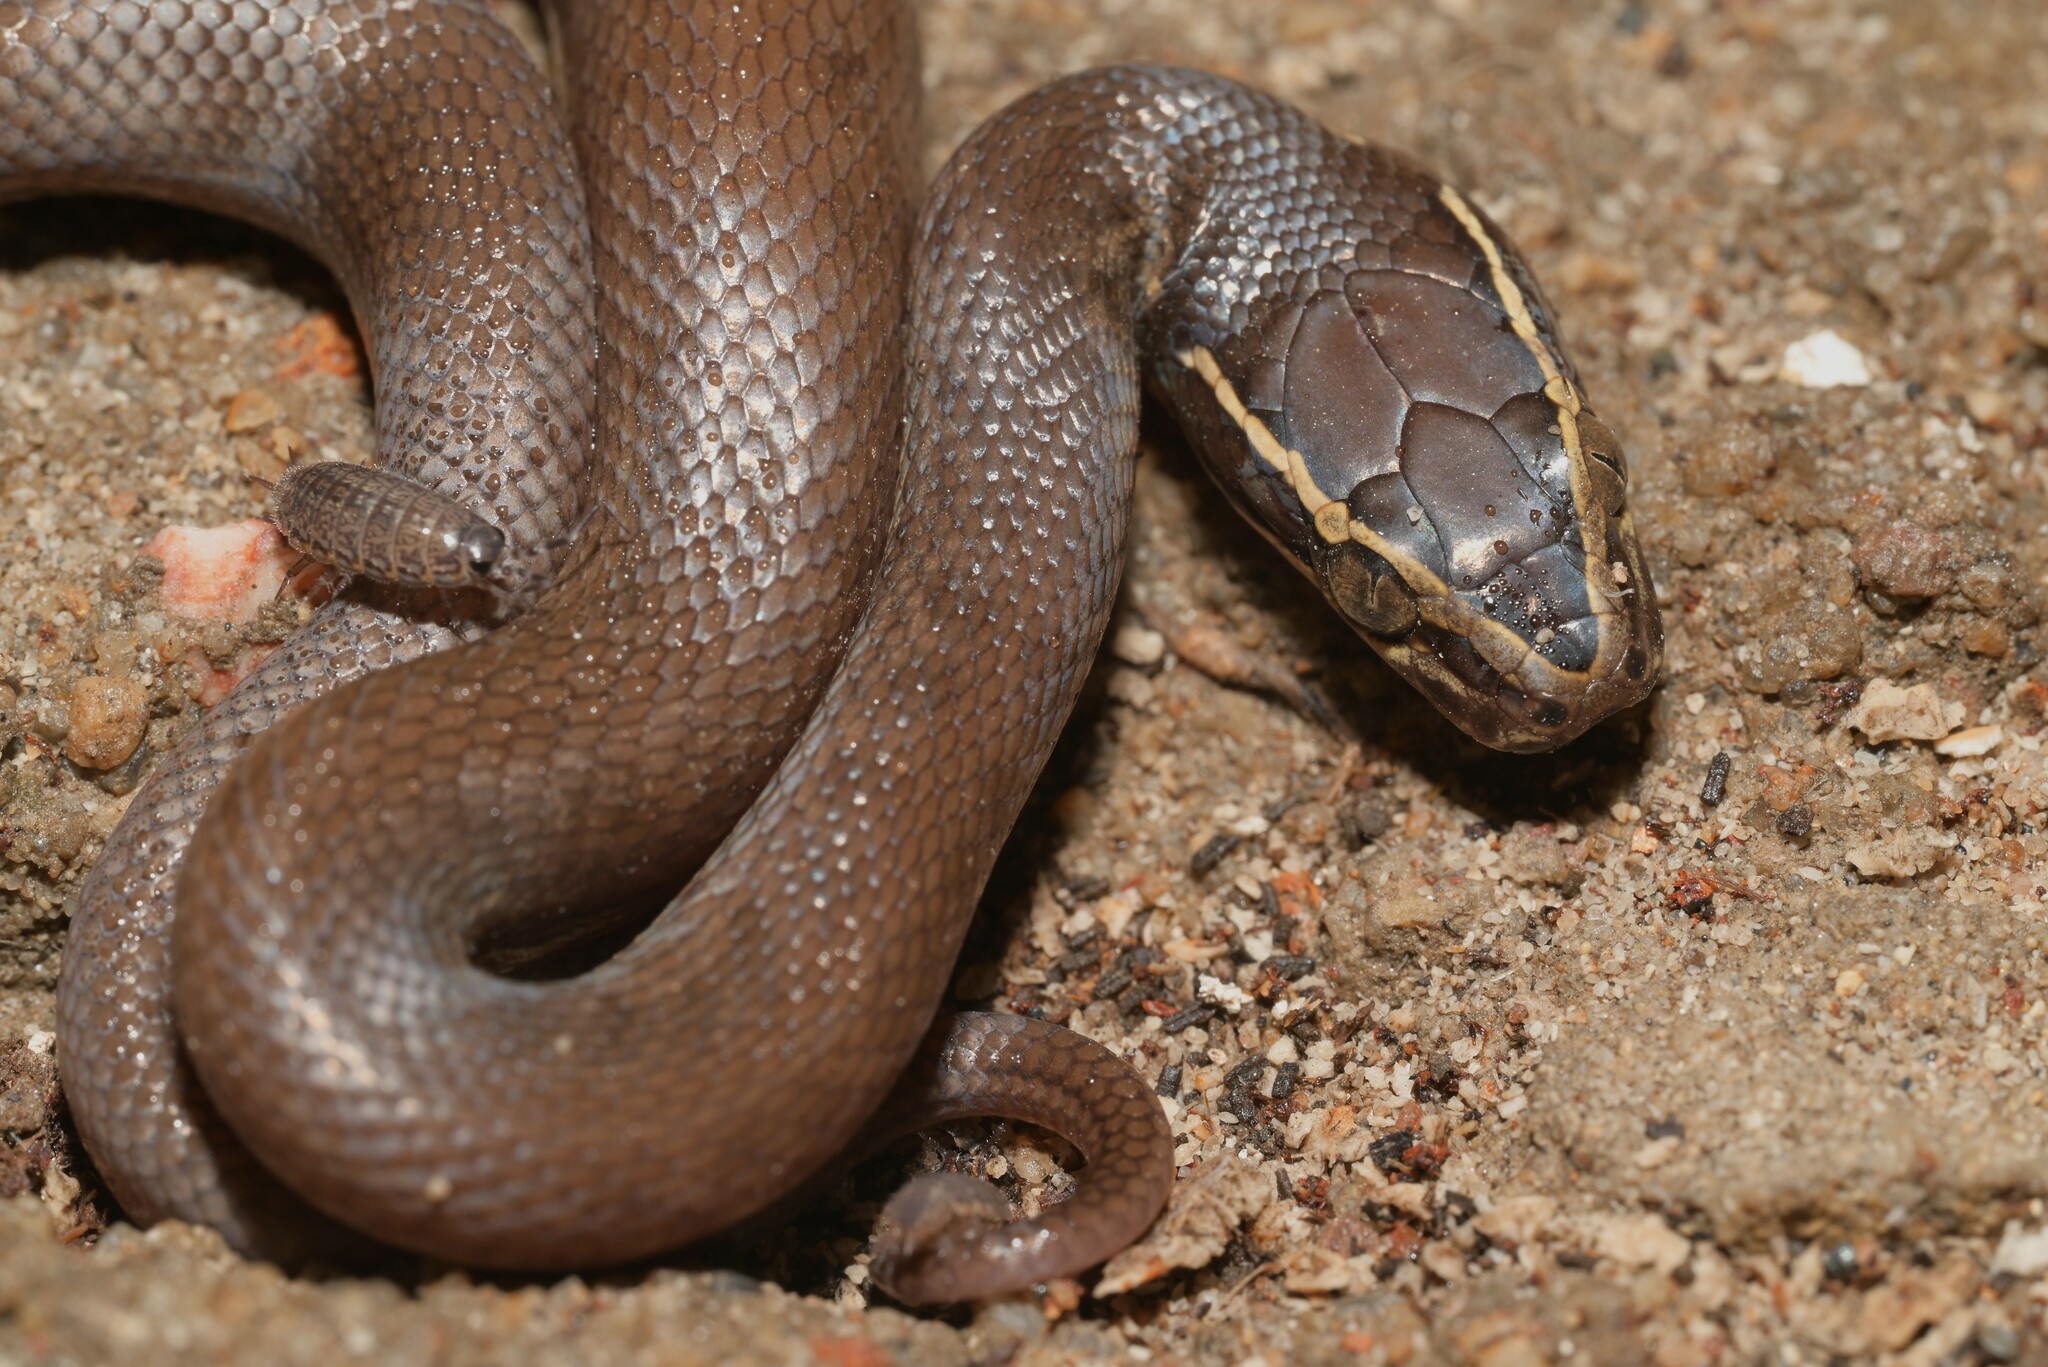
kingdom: Animalia
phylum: Chordata
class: Squamata
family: Lamprophiidae
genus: Boaedon
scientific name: Boaedon capensis
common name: Brown house snake
